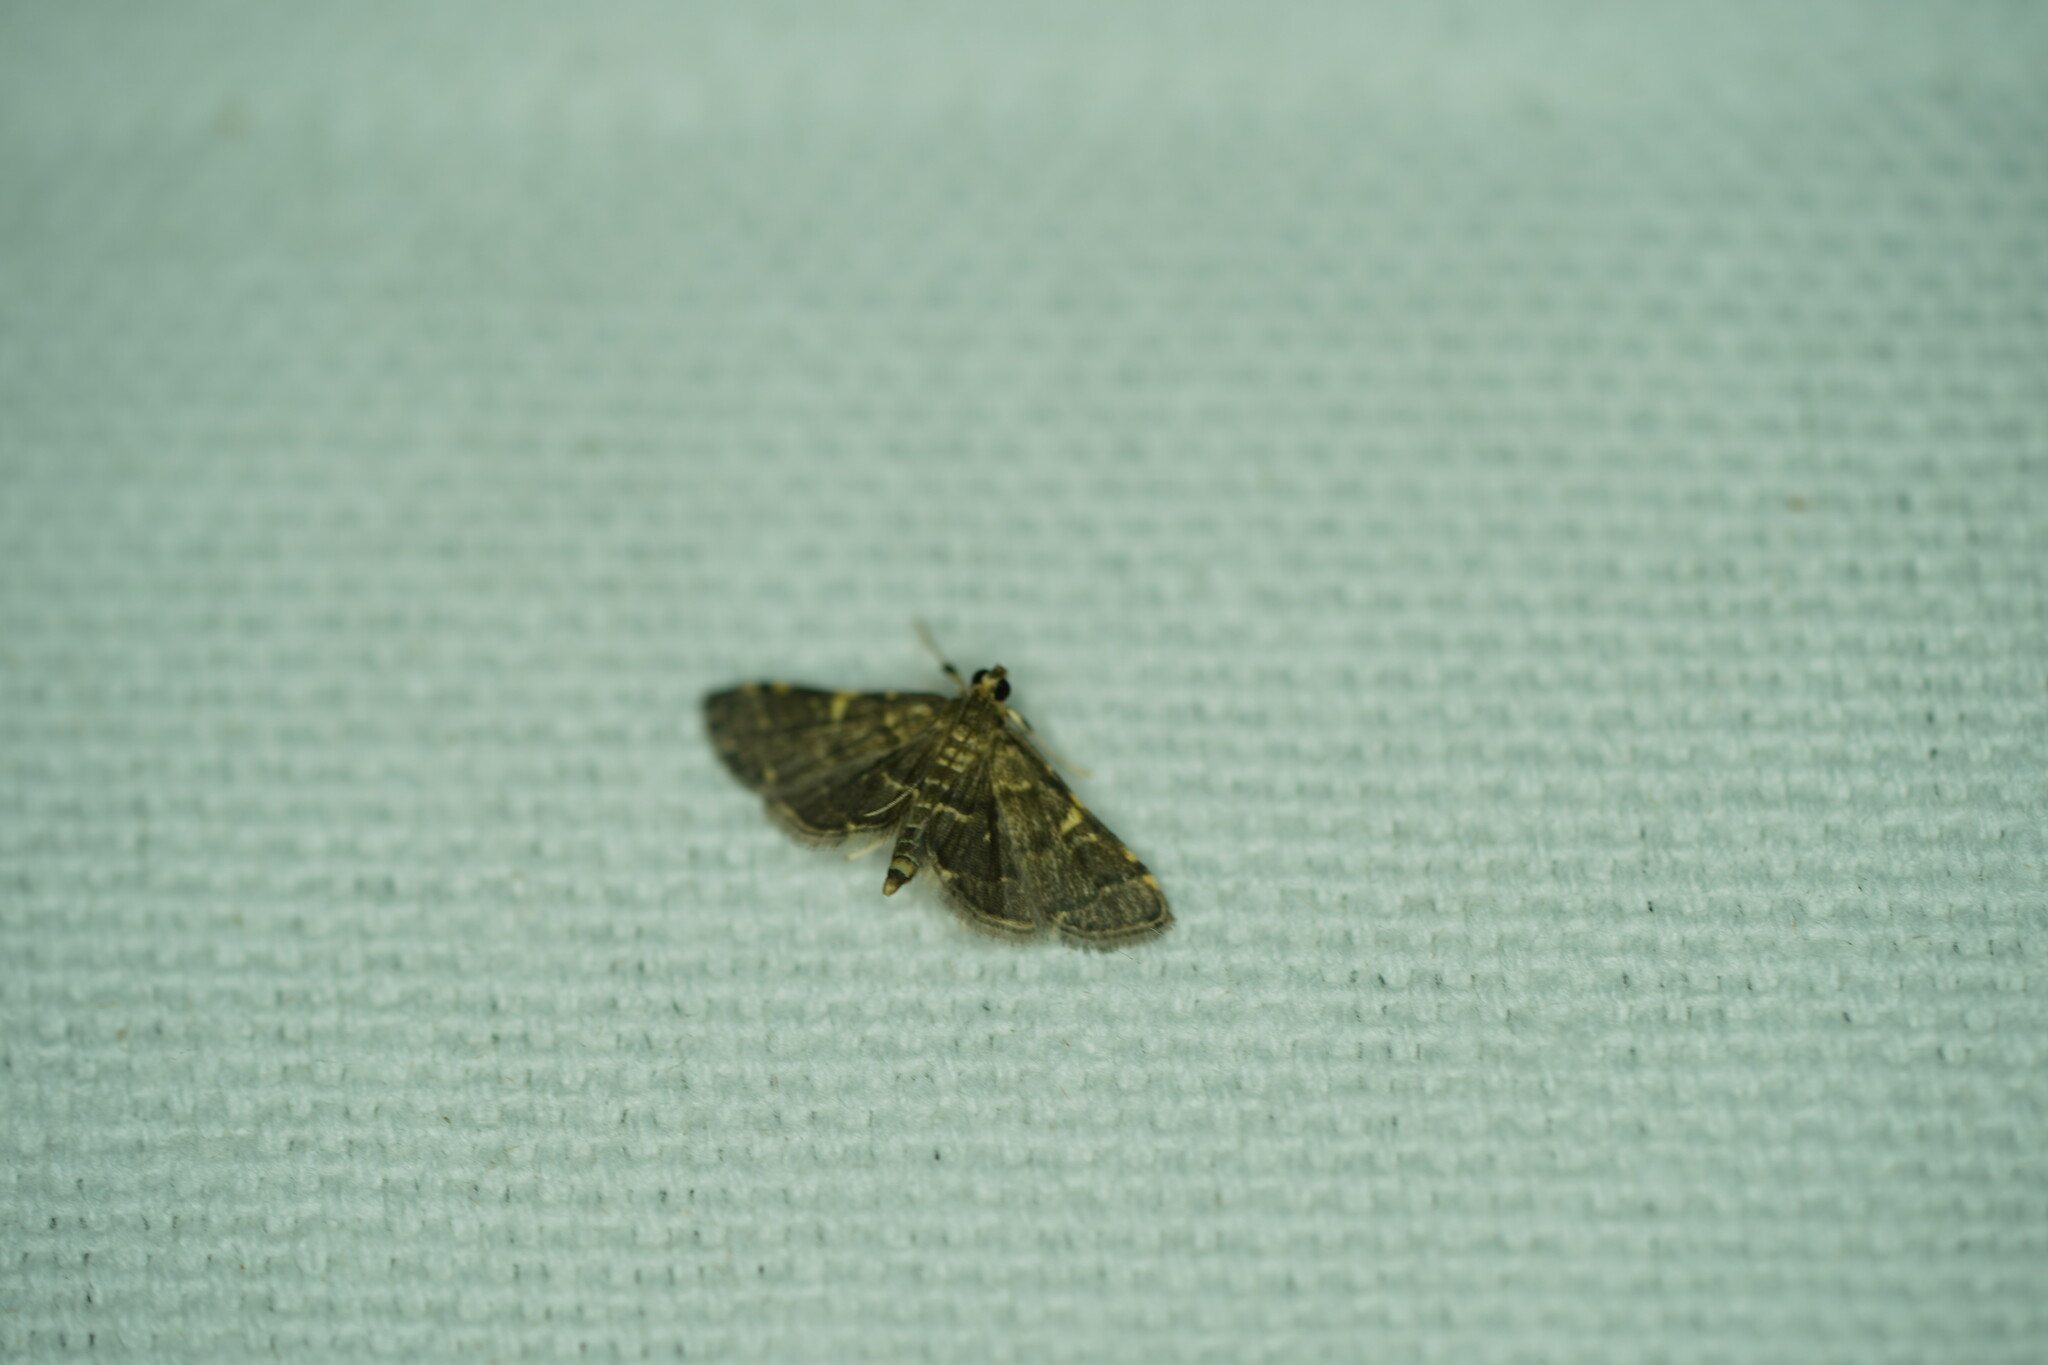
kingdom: Animalia
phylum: Arthropoda
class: Insecta
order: Lepidoptera
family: Crambidae
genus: Anageshna
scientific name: Anageshna primordialis
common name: Yellow-spotted webworm moth
